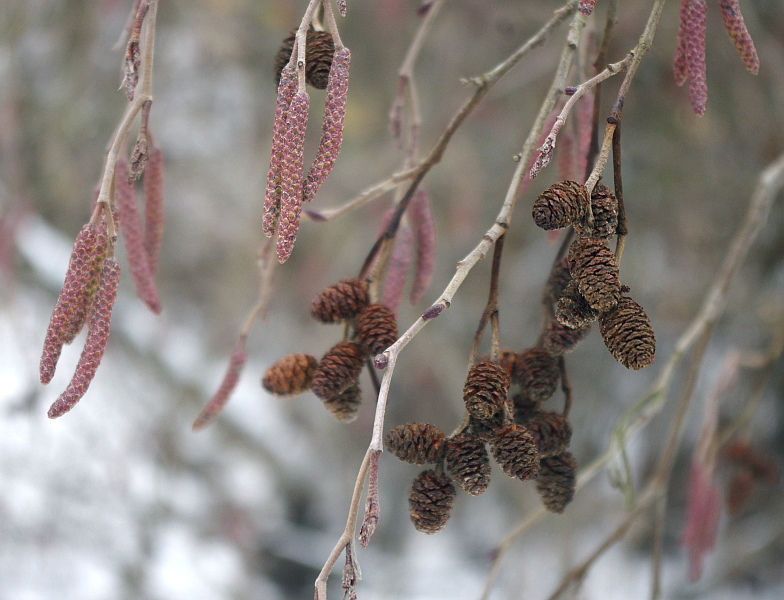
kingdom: Plantae
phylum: Tracheophyta
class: Magnoliopsida
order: Fagales
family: Betulaceae
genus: Alnus
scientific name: Alnus incana
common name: Grey alder
